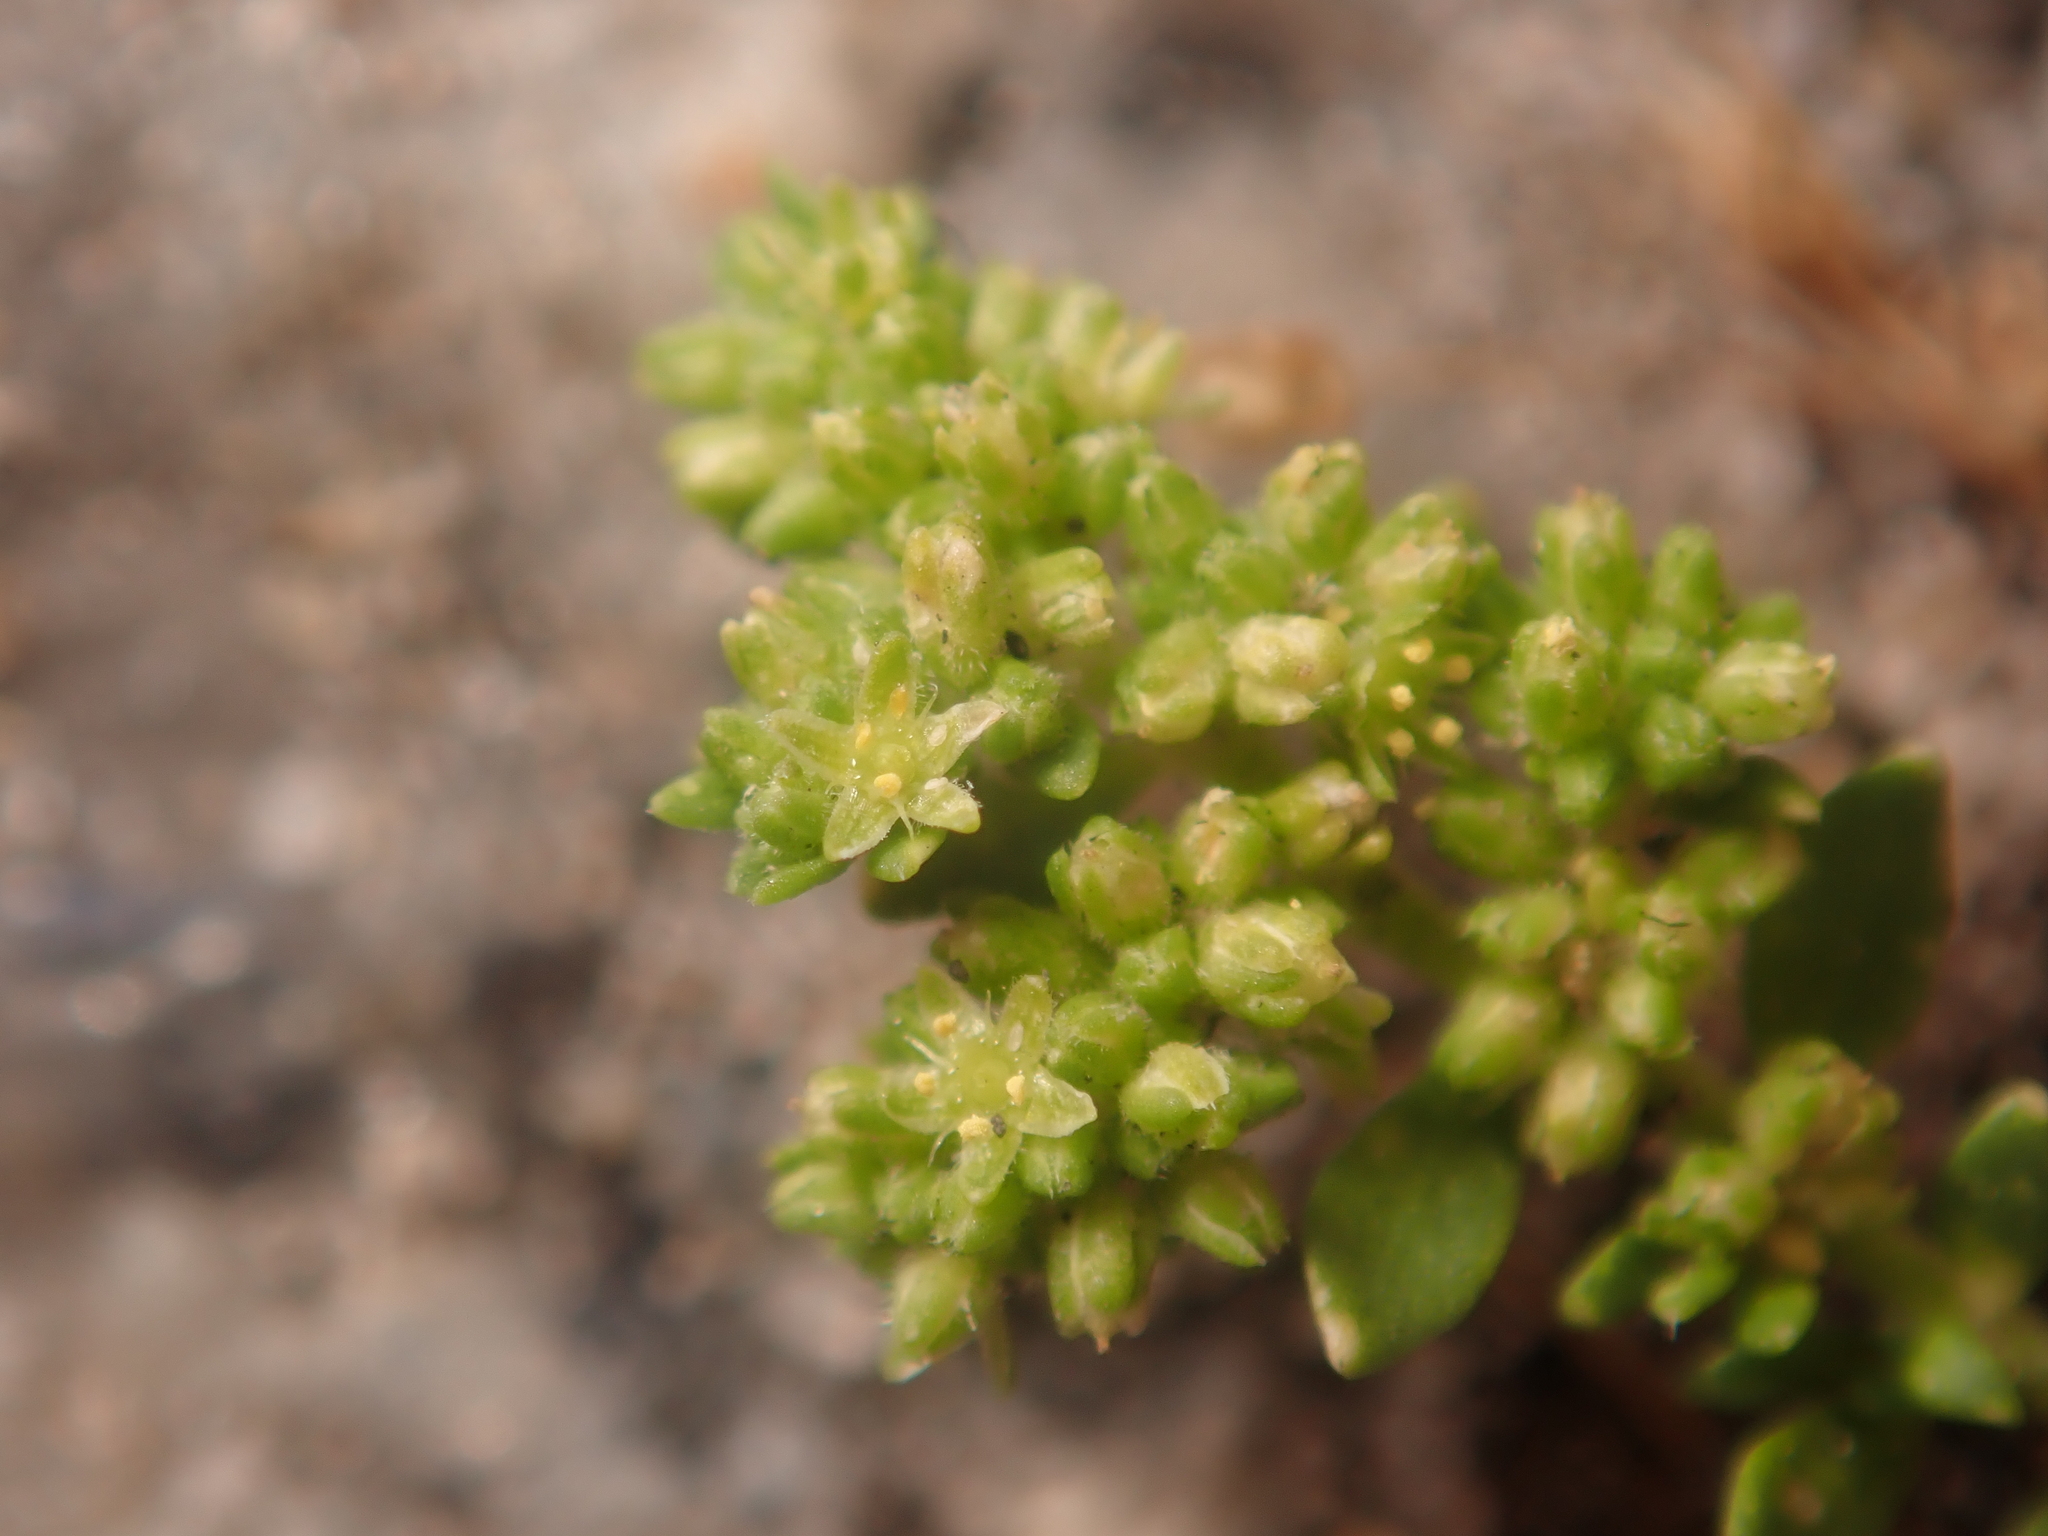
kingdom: Plantae
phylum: Tracheophyta
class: Magnoliopsida
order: Caryophyllales
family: Caryophyllaceae
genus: Herniaria
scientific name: Herniaria glabra
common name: Smooth rupturewort
